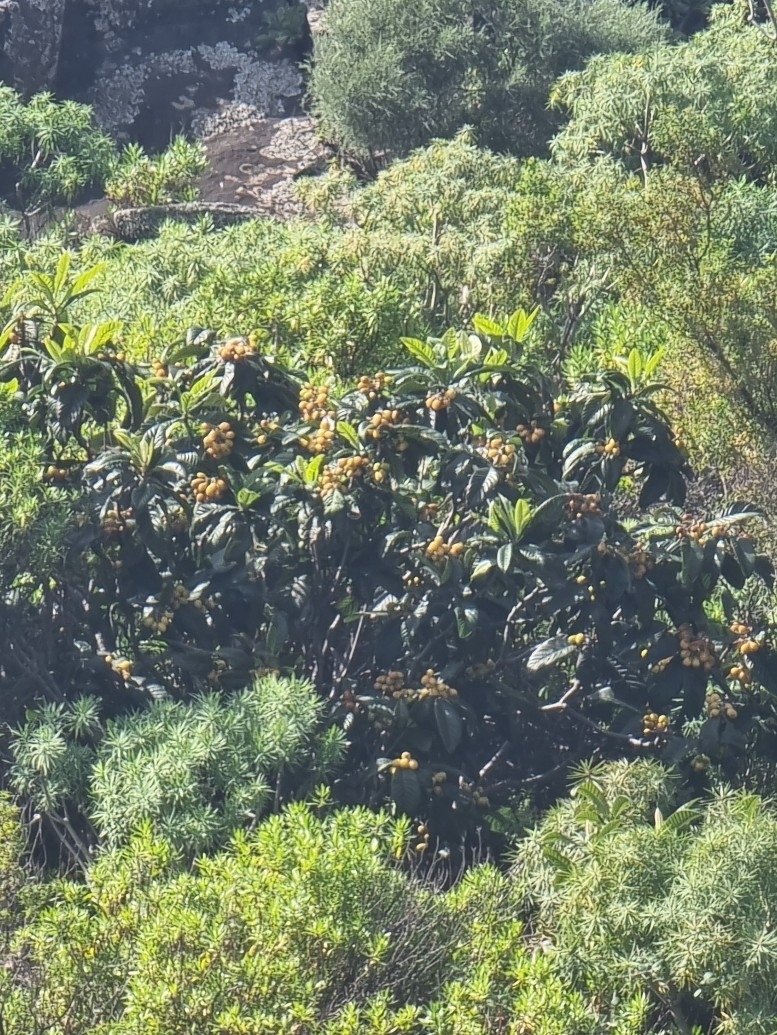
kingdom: Plantae
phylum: Tracheophyta
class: Magnoliopsida
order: Rosales
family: Rosaceae
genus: Rhaphiolepis
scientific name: Rhaphiolepis bibas
